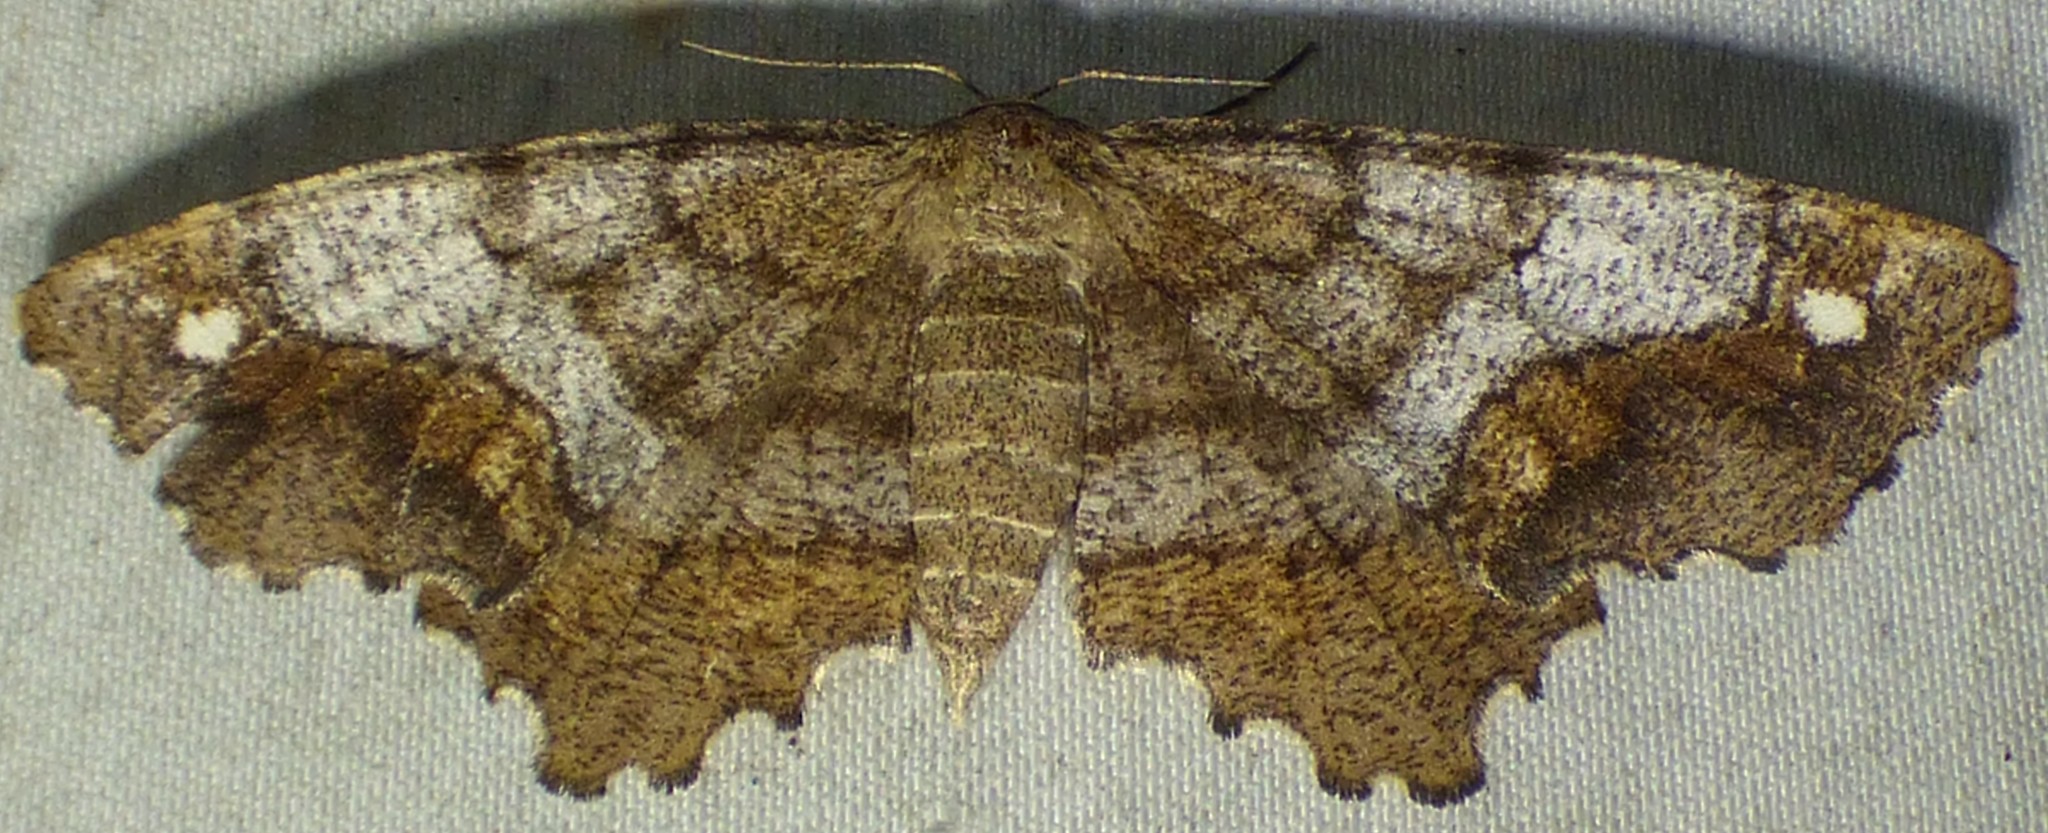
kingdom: Animalia
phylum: Arthropoda
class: Insecta
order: Lepidoptera
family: Geometridae
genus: Hypagyrtis
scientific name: Hypagyrtis unipunctata
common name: One-spotted variant
